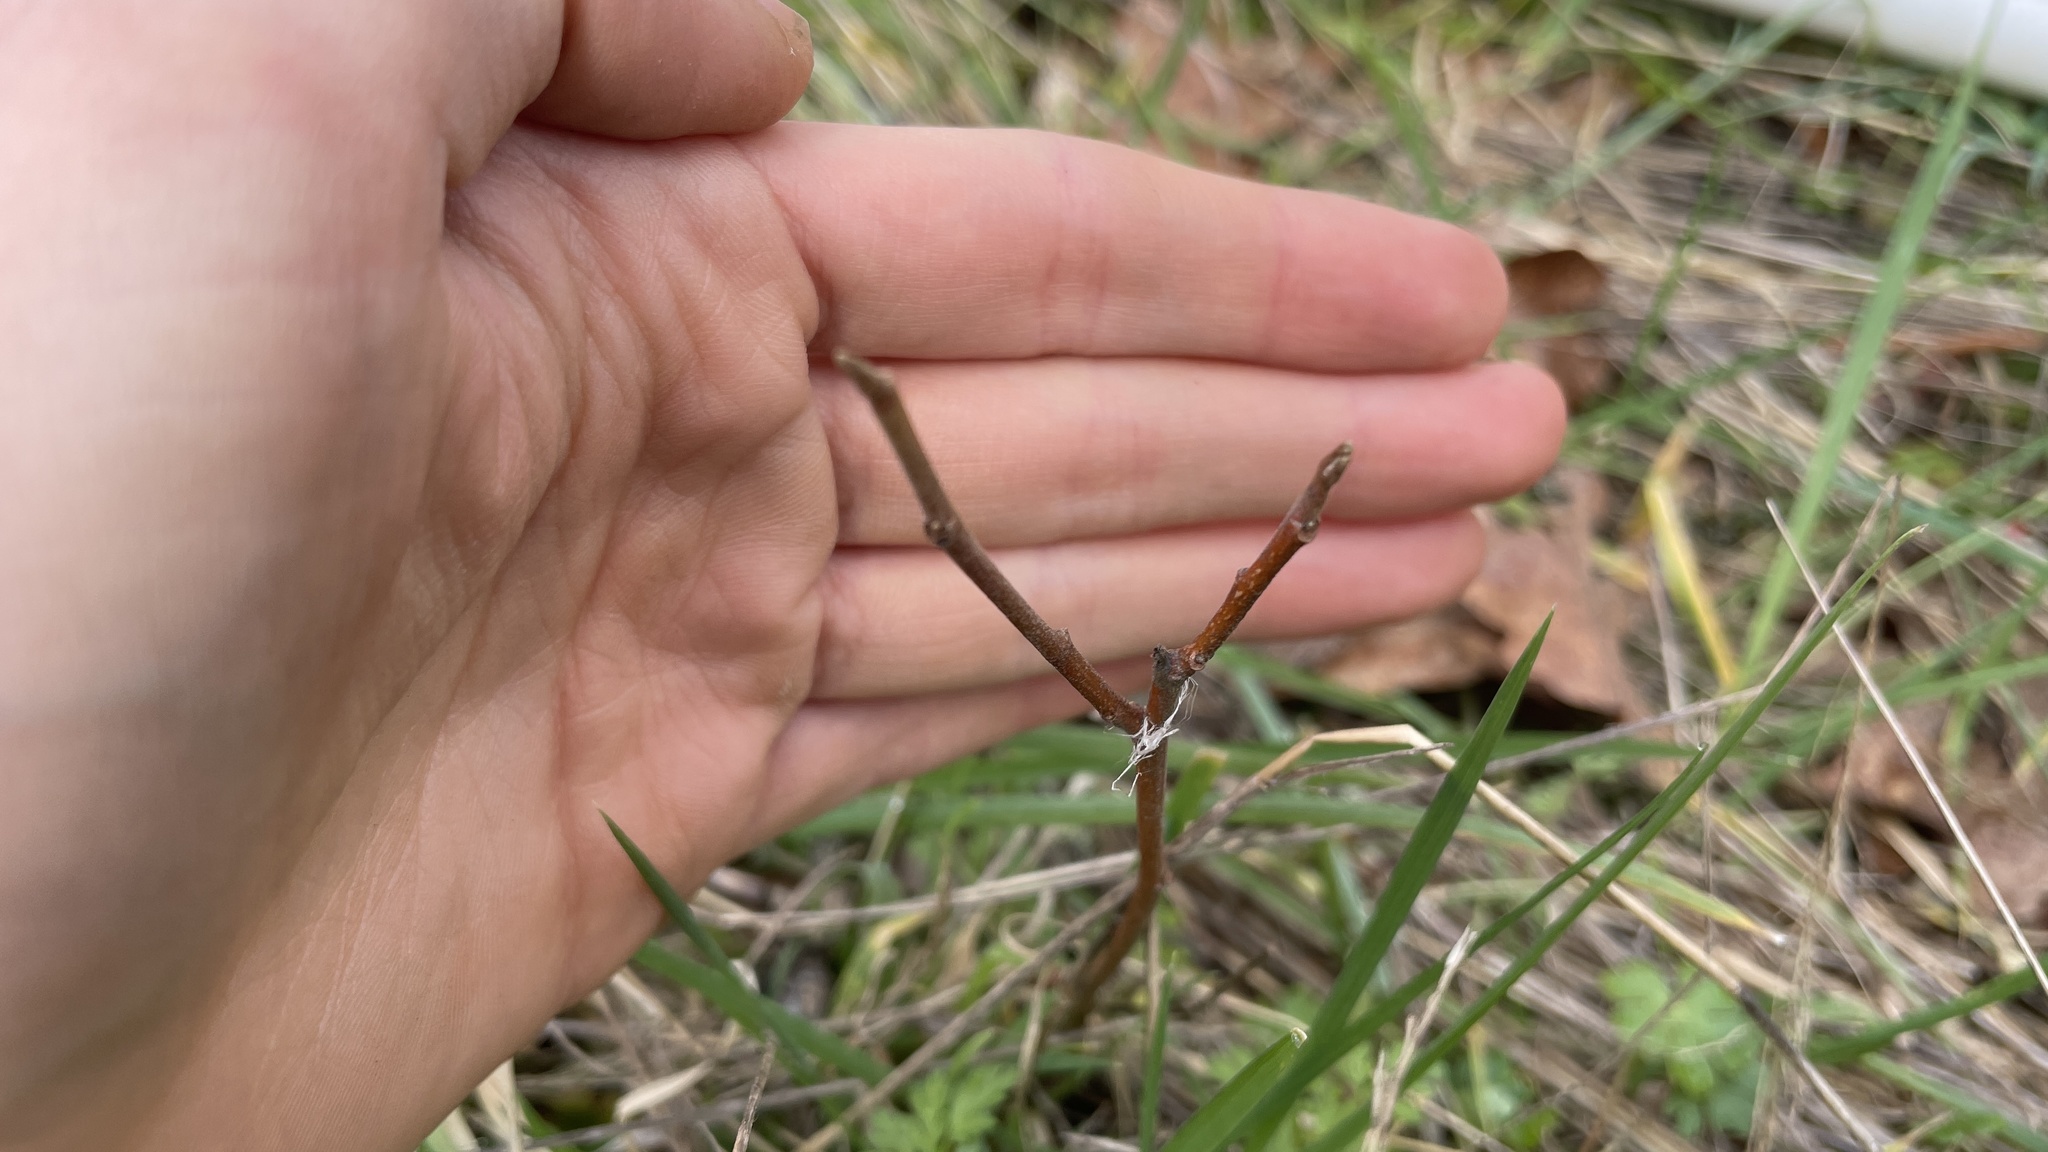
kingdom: Plantae
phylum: Tracheophyta
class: Magnoliopsida
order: Sapindales
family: Anacardiaceae
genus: Toxicodendron
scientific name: Toxicodendron diversilobum
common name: Pacific poison-oak
